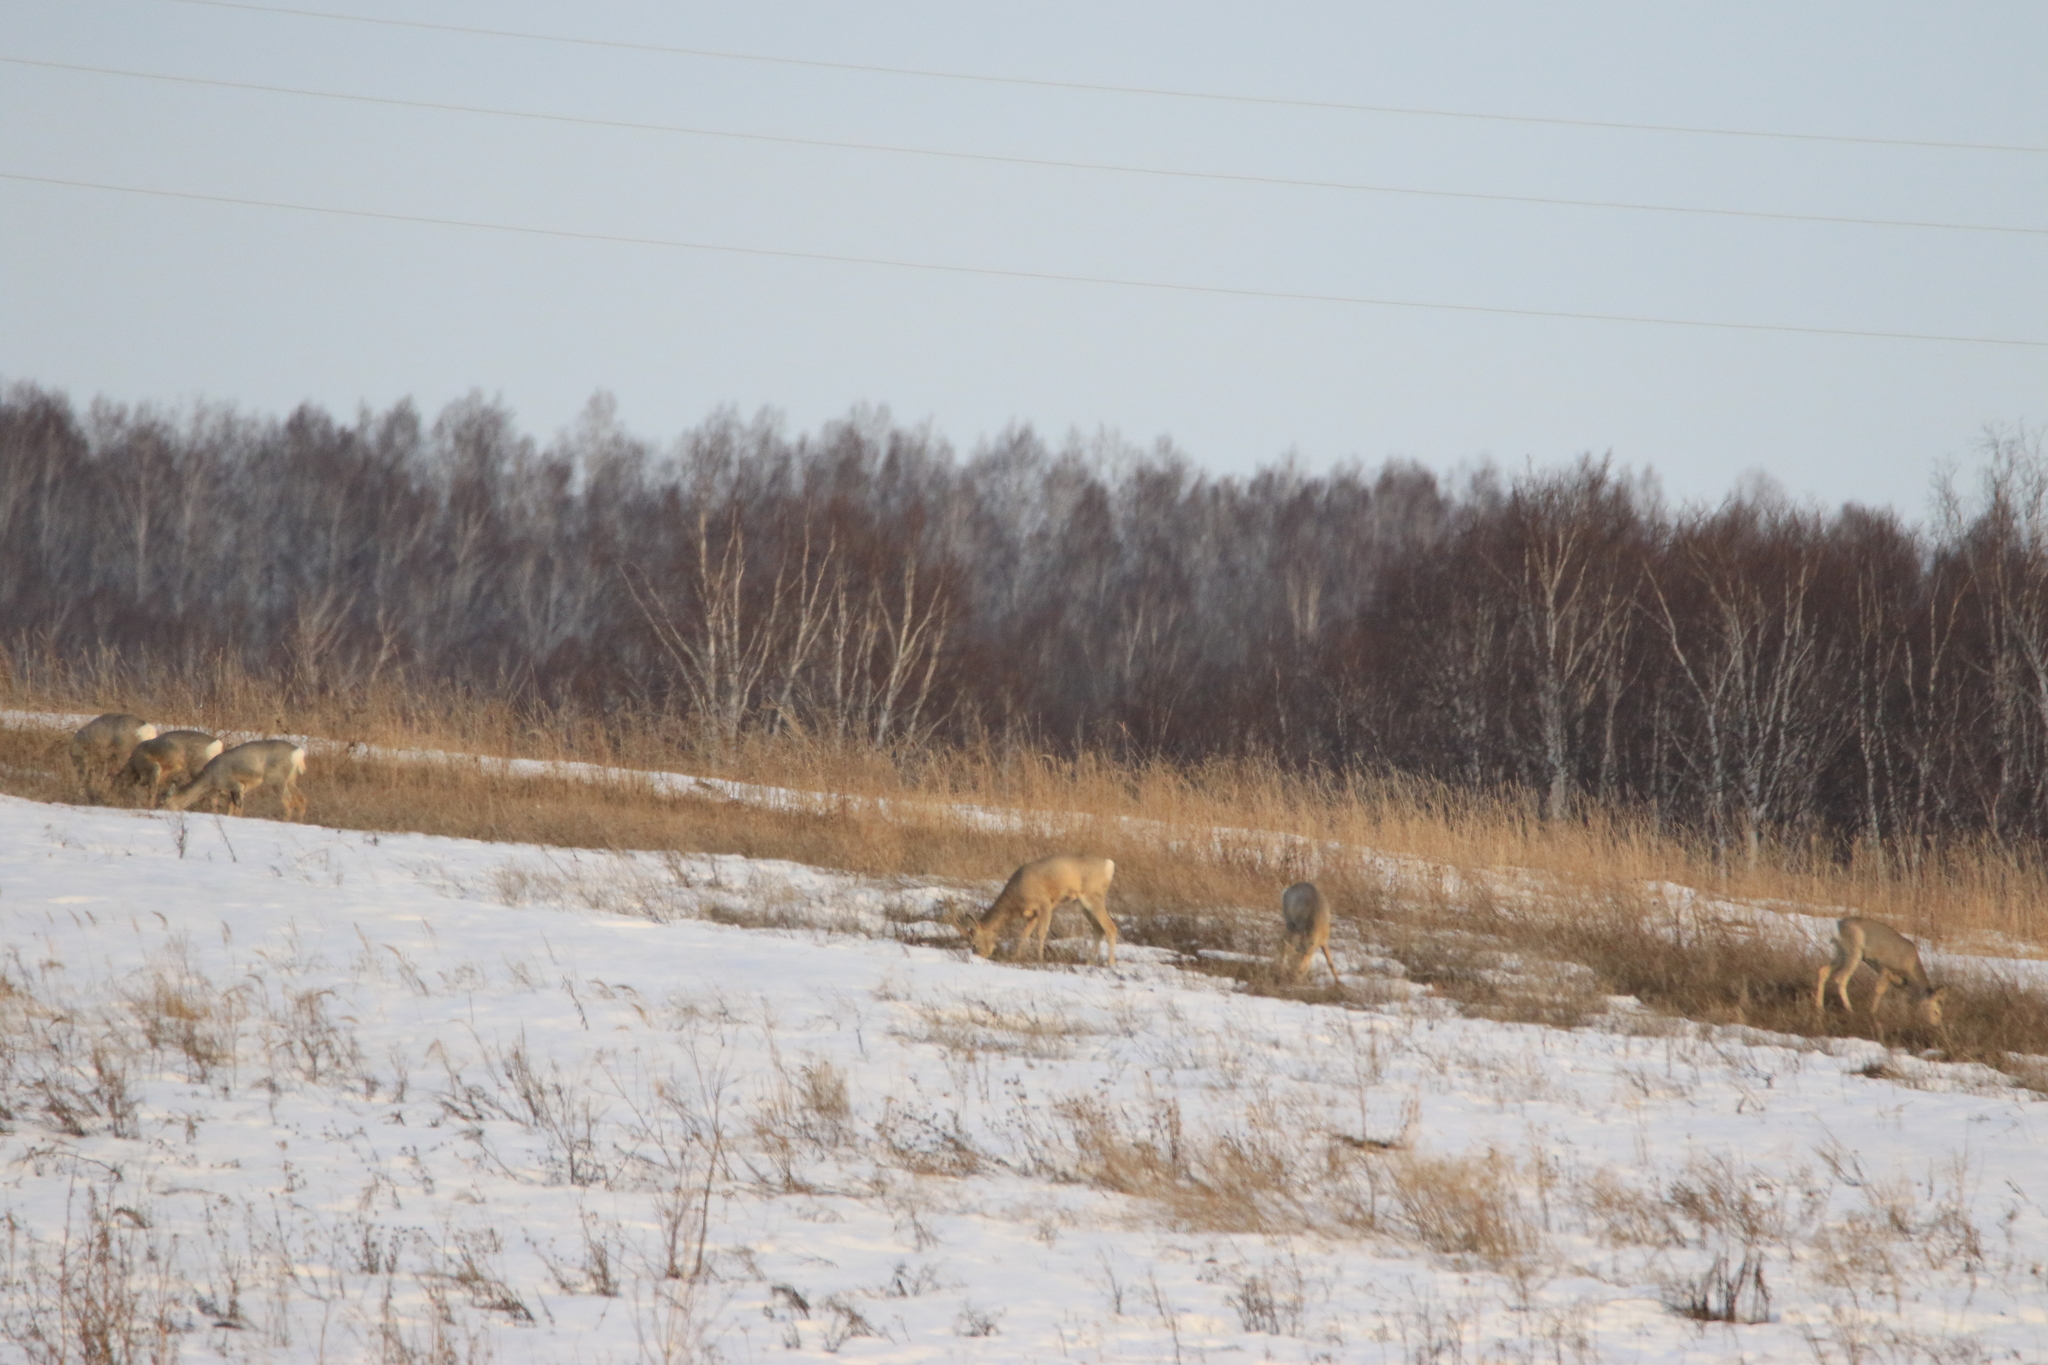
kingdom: Animalia
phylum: Chordata
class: Mammalia
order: Artiodactyla
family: Cervidae
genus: Capreolus
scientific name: Capreolus pygargus
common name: Siberian roe
